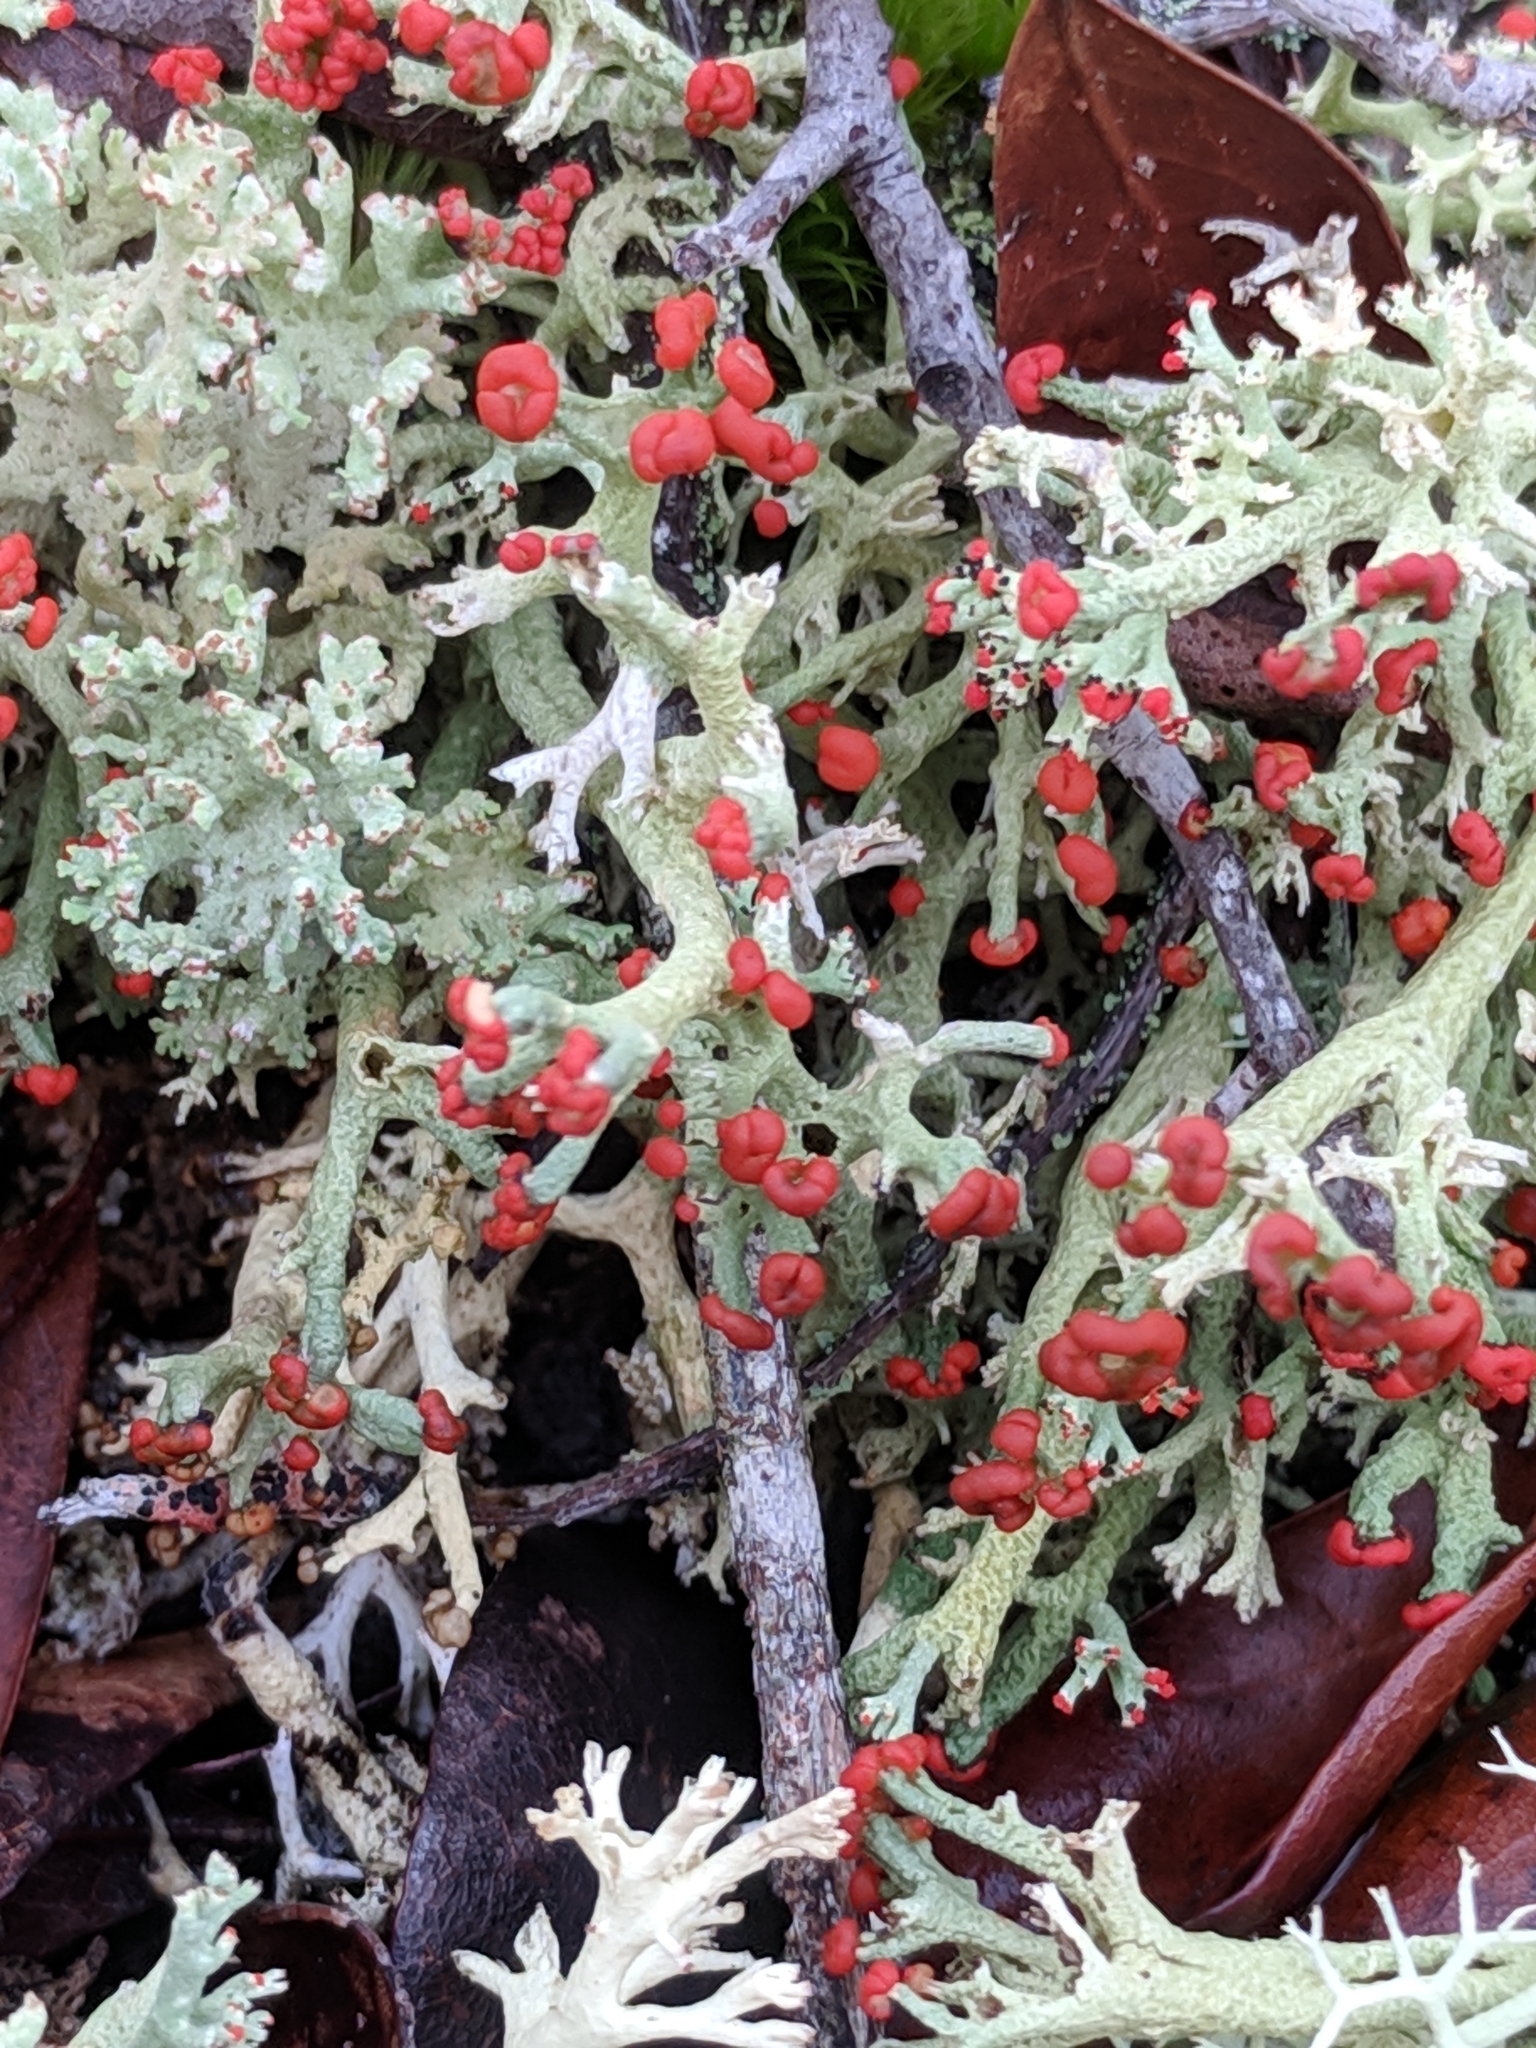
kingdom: Fungi
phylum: Ascomycota
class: Lecanoromycetes
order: Lecanorales
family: Cladoniaceae
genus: Cladonia
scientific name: Cladonia leporina
